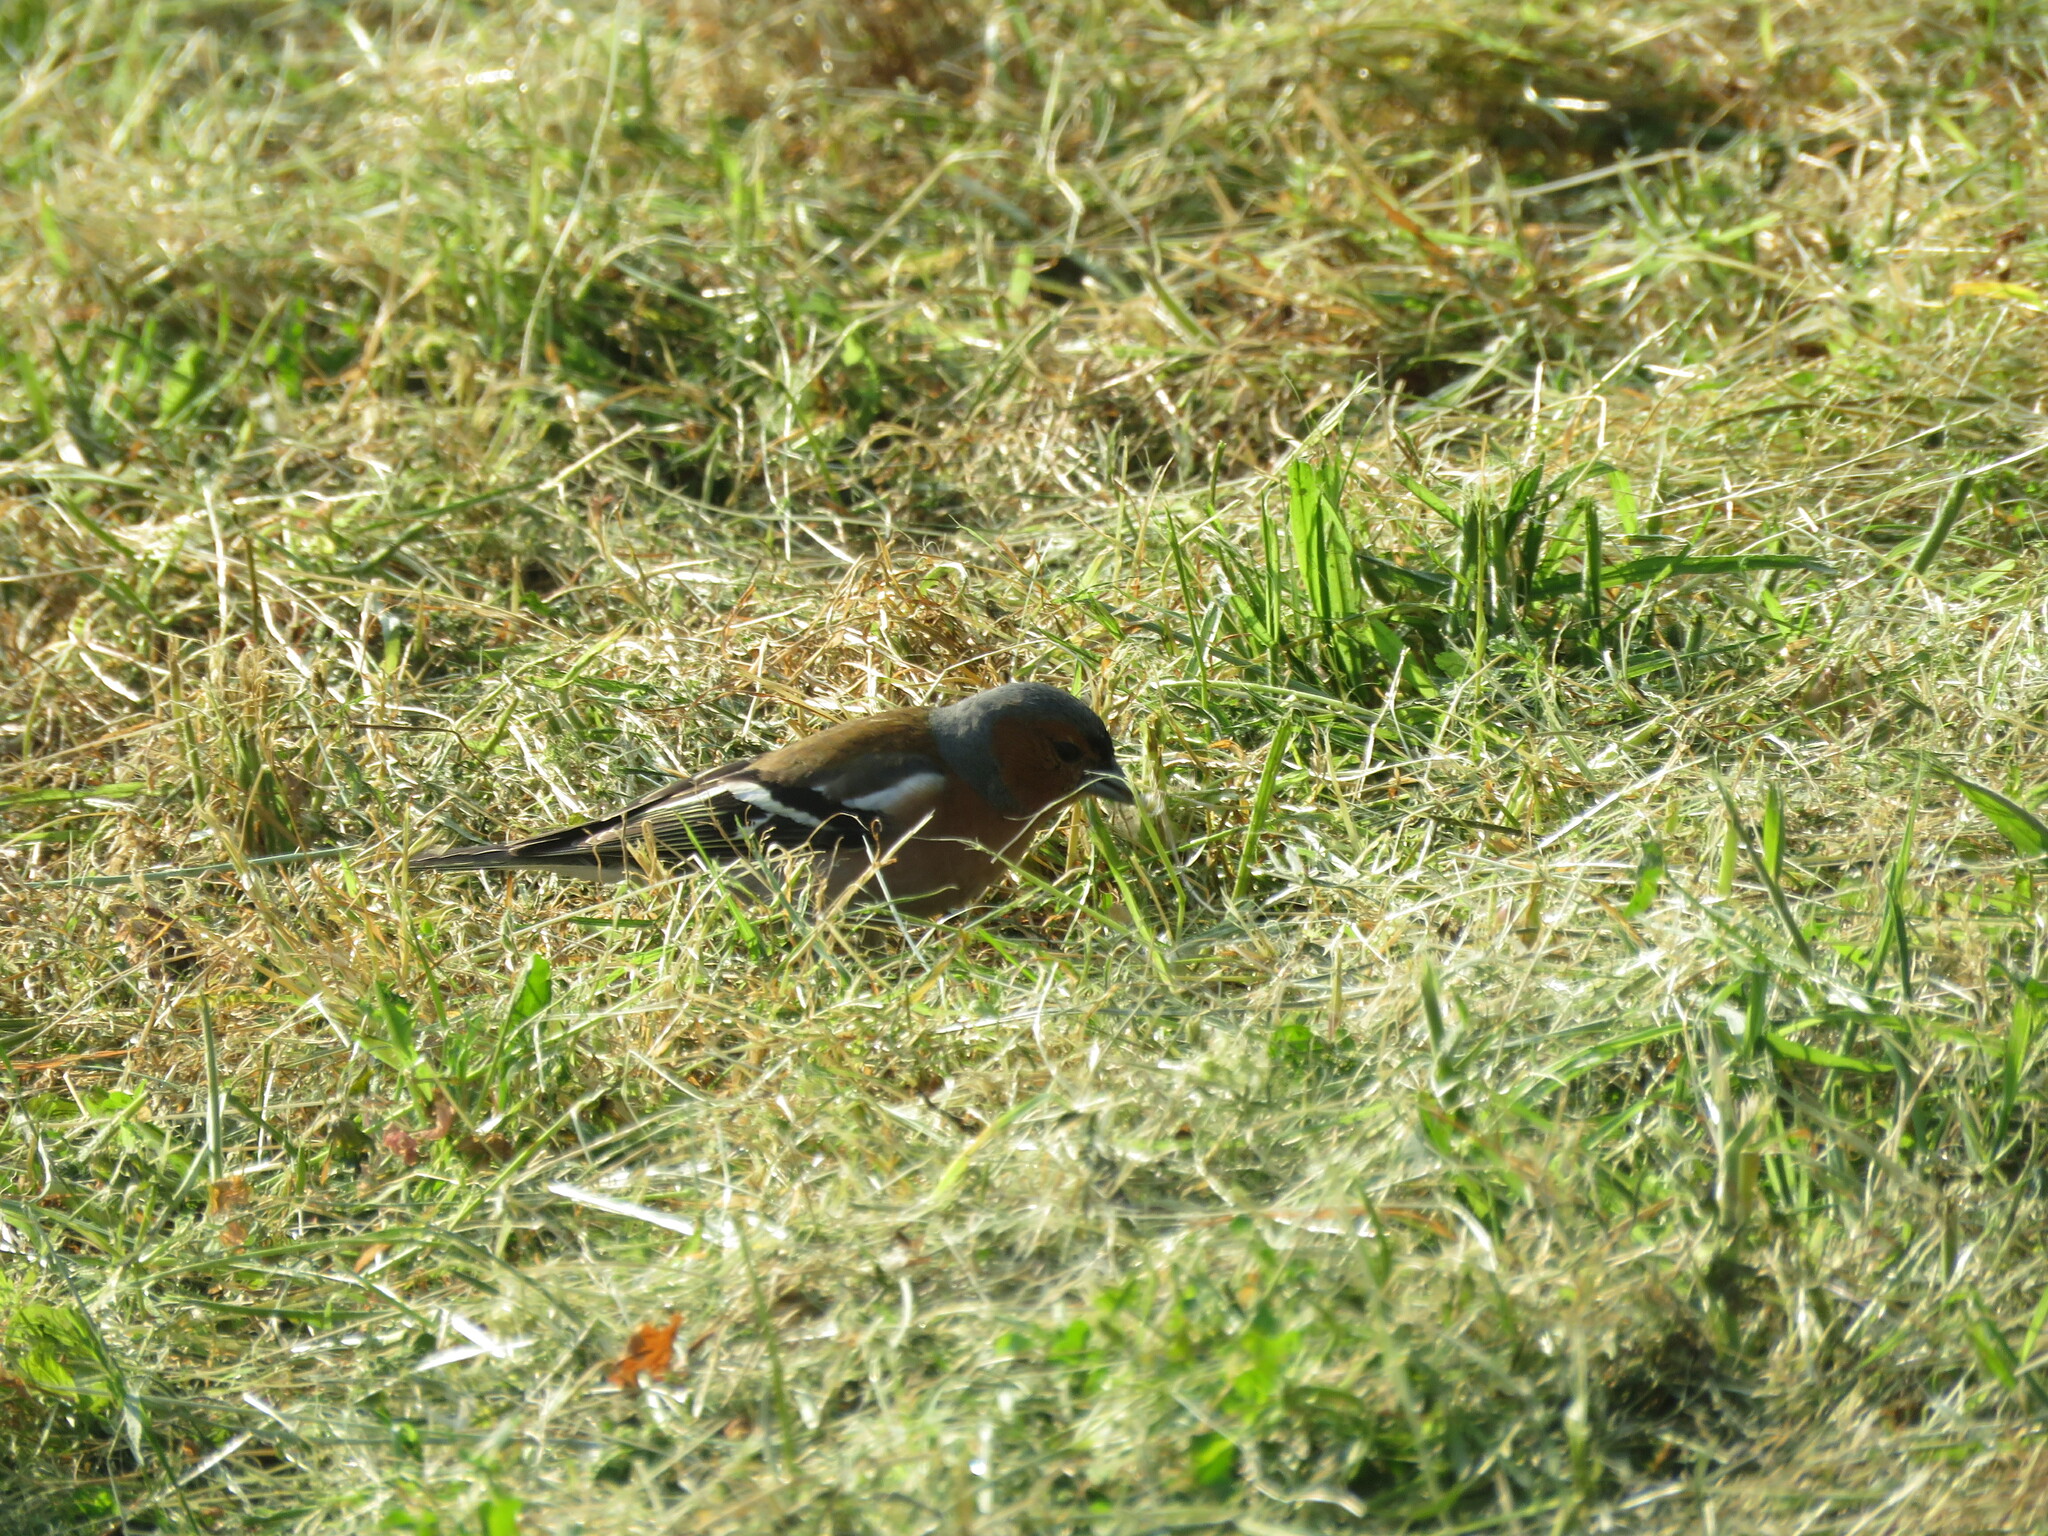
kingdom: Animalia
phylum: Chordata
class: Aves
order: Passeriformes
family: Fringillidae
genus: Fringilla
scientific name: Fringilla coelebs
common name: Common chaffinch
